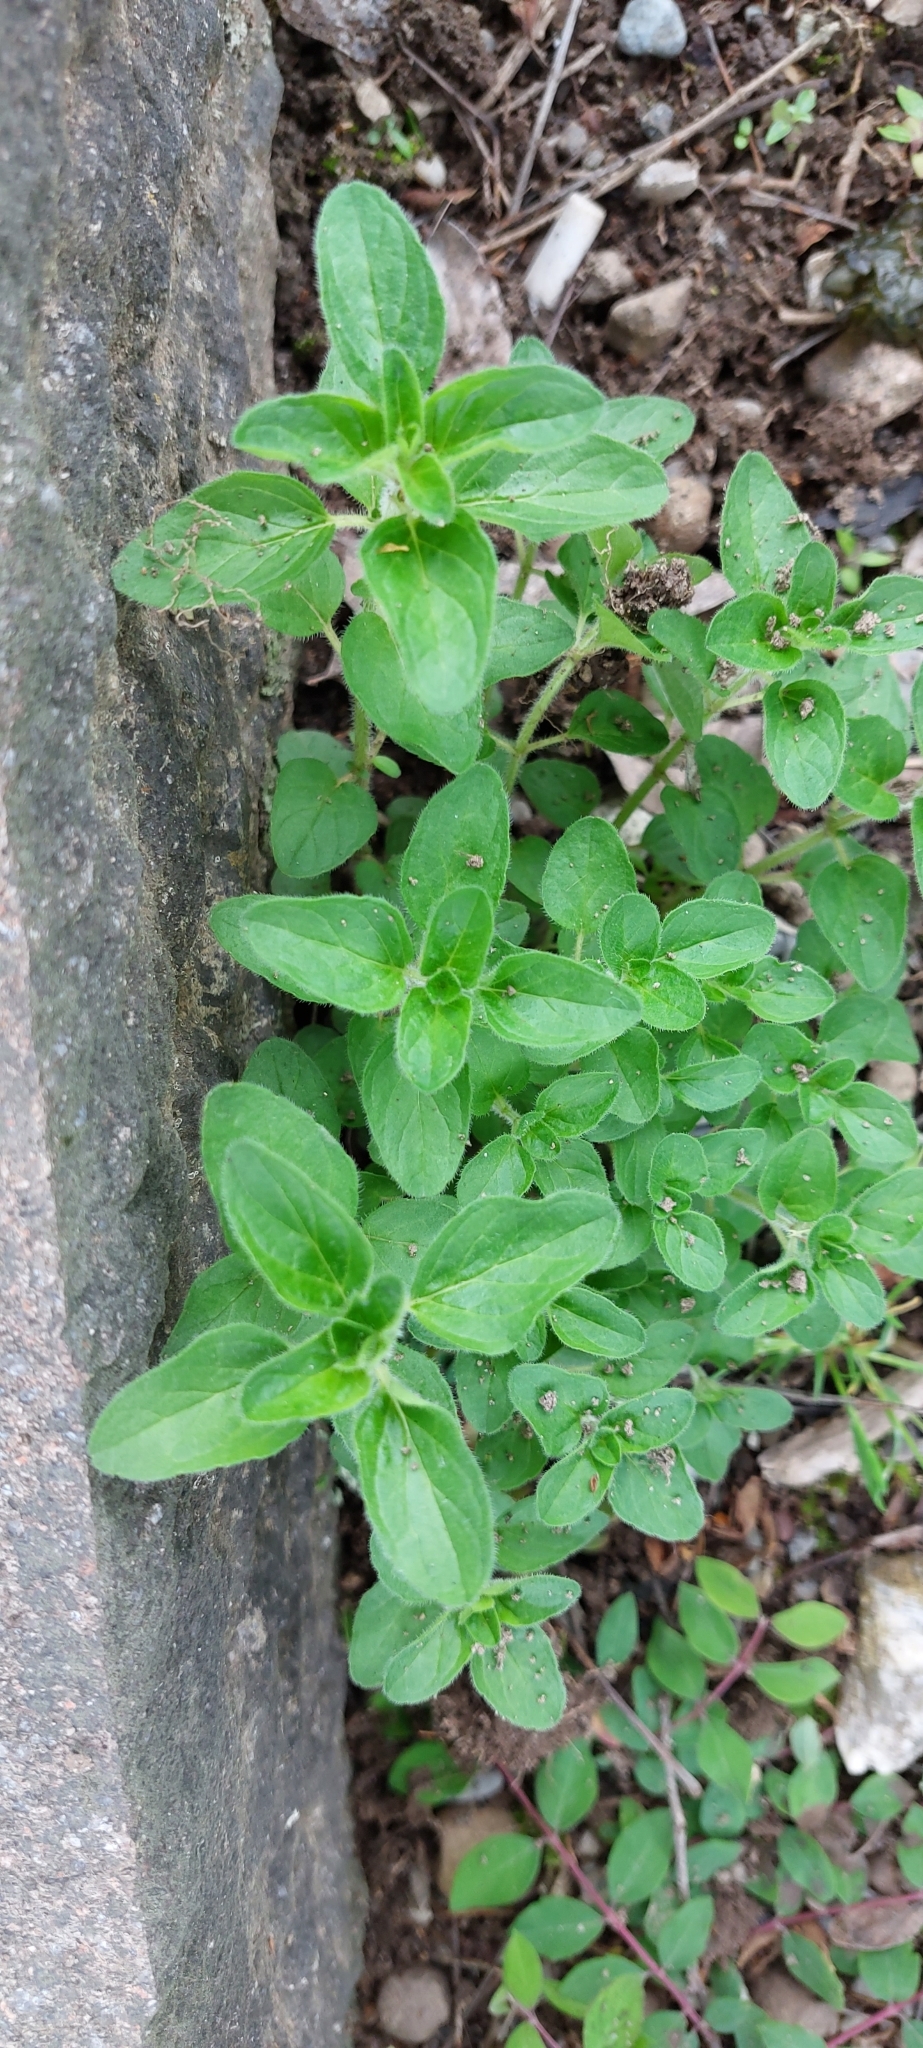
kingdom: Plantae
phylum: Tracheophyta
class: Magnoliopsida
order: Lamiales
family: Lamiaceae
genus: Origanum
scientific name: Origanum vulgare
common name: Wild marjoram
